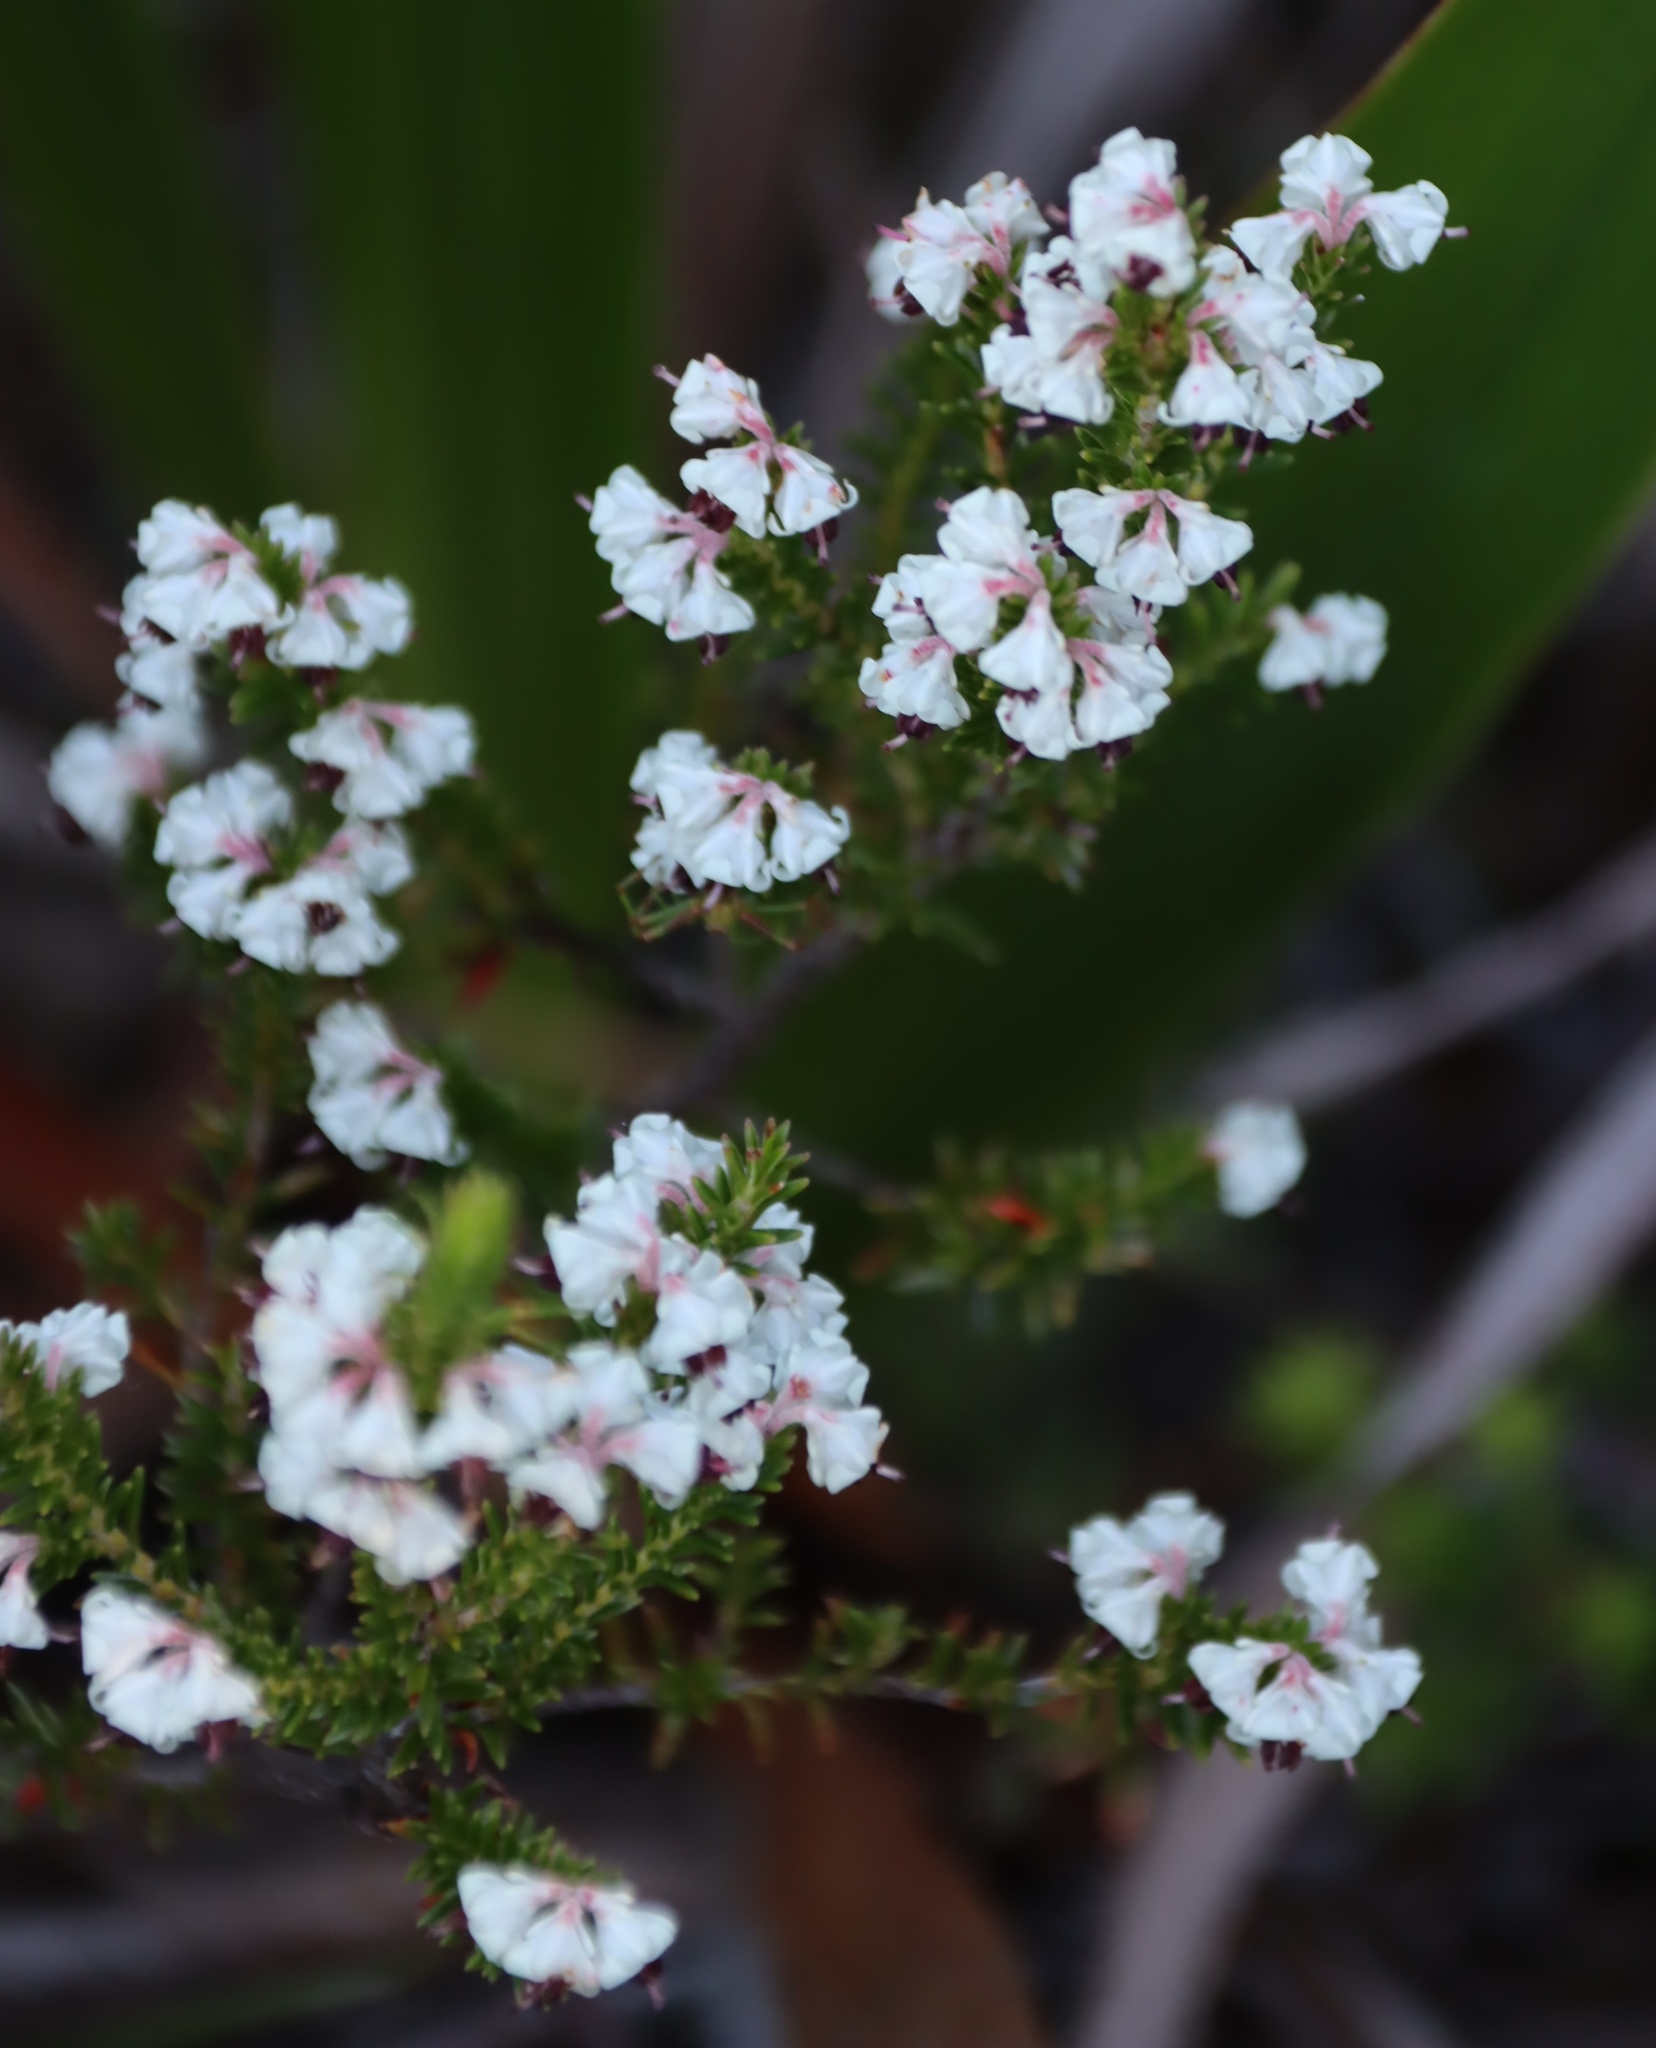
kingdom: Plantae
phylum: Tracheophyta
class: Magnoliopsida
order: Ericales
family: Ericaceae
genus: Erica
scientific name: Erica calycina
